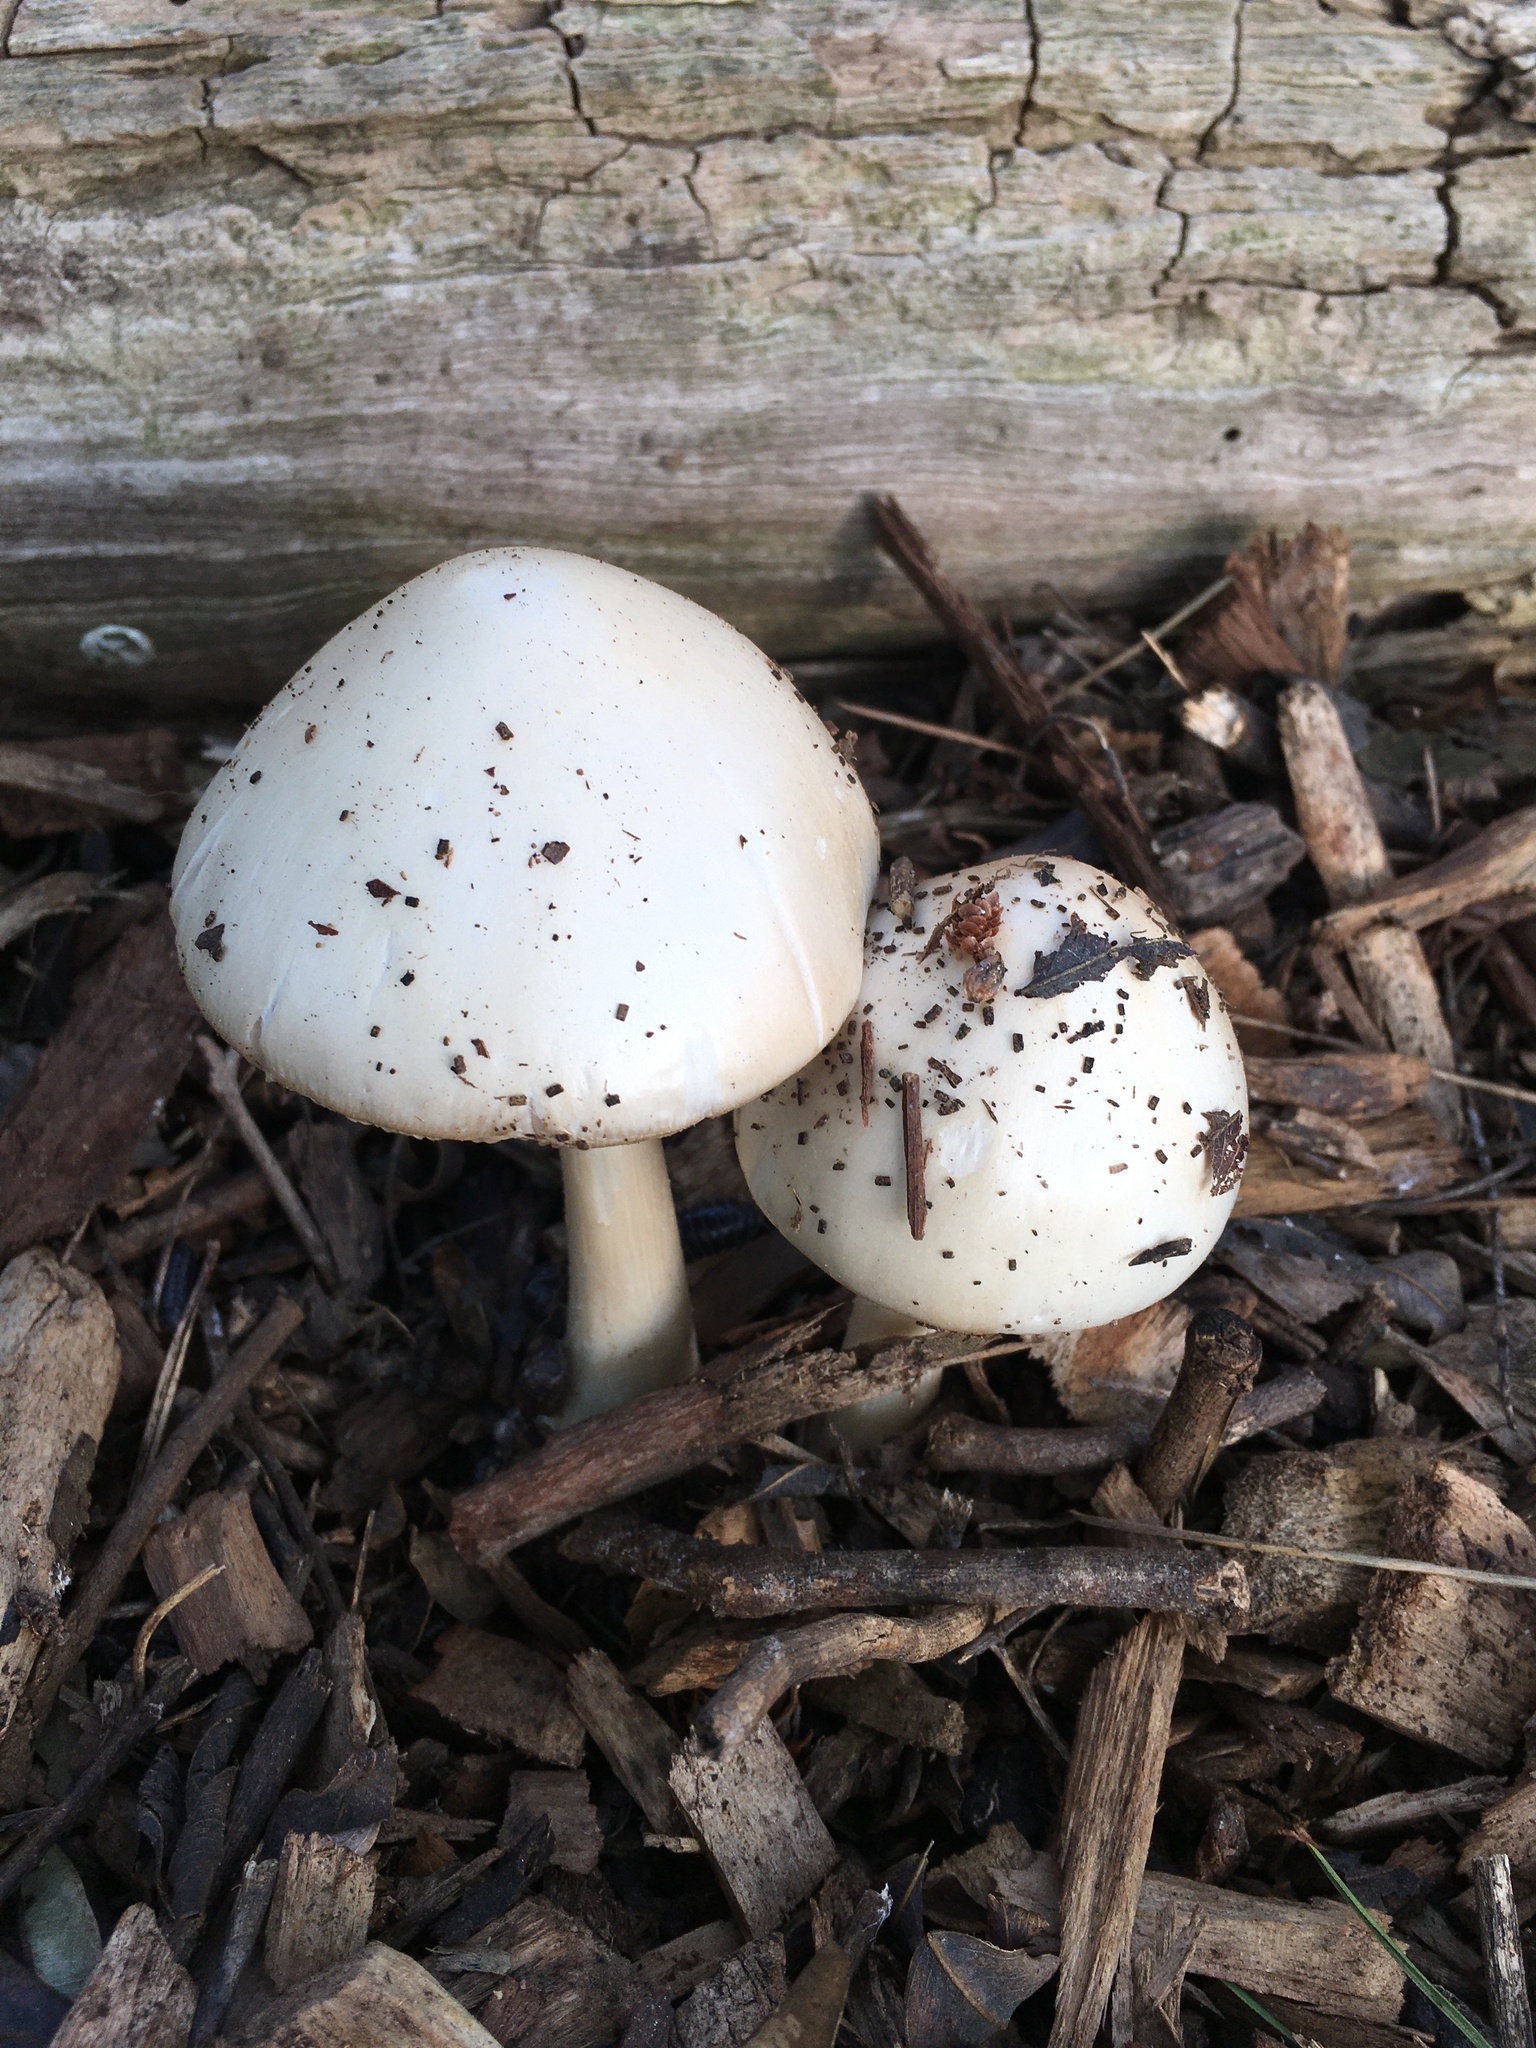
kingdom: Fungi
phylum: Basidiomycota
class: Agaricomycetes
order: Agaricales
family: Pluteaceae
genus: Volvopluteus
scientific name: Volvopluteus gloiocephalus
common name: Stubble rosegill
